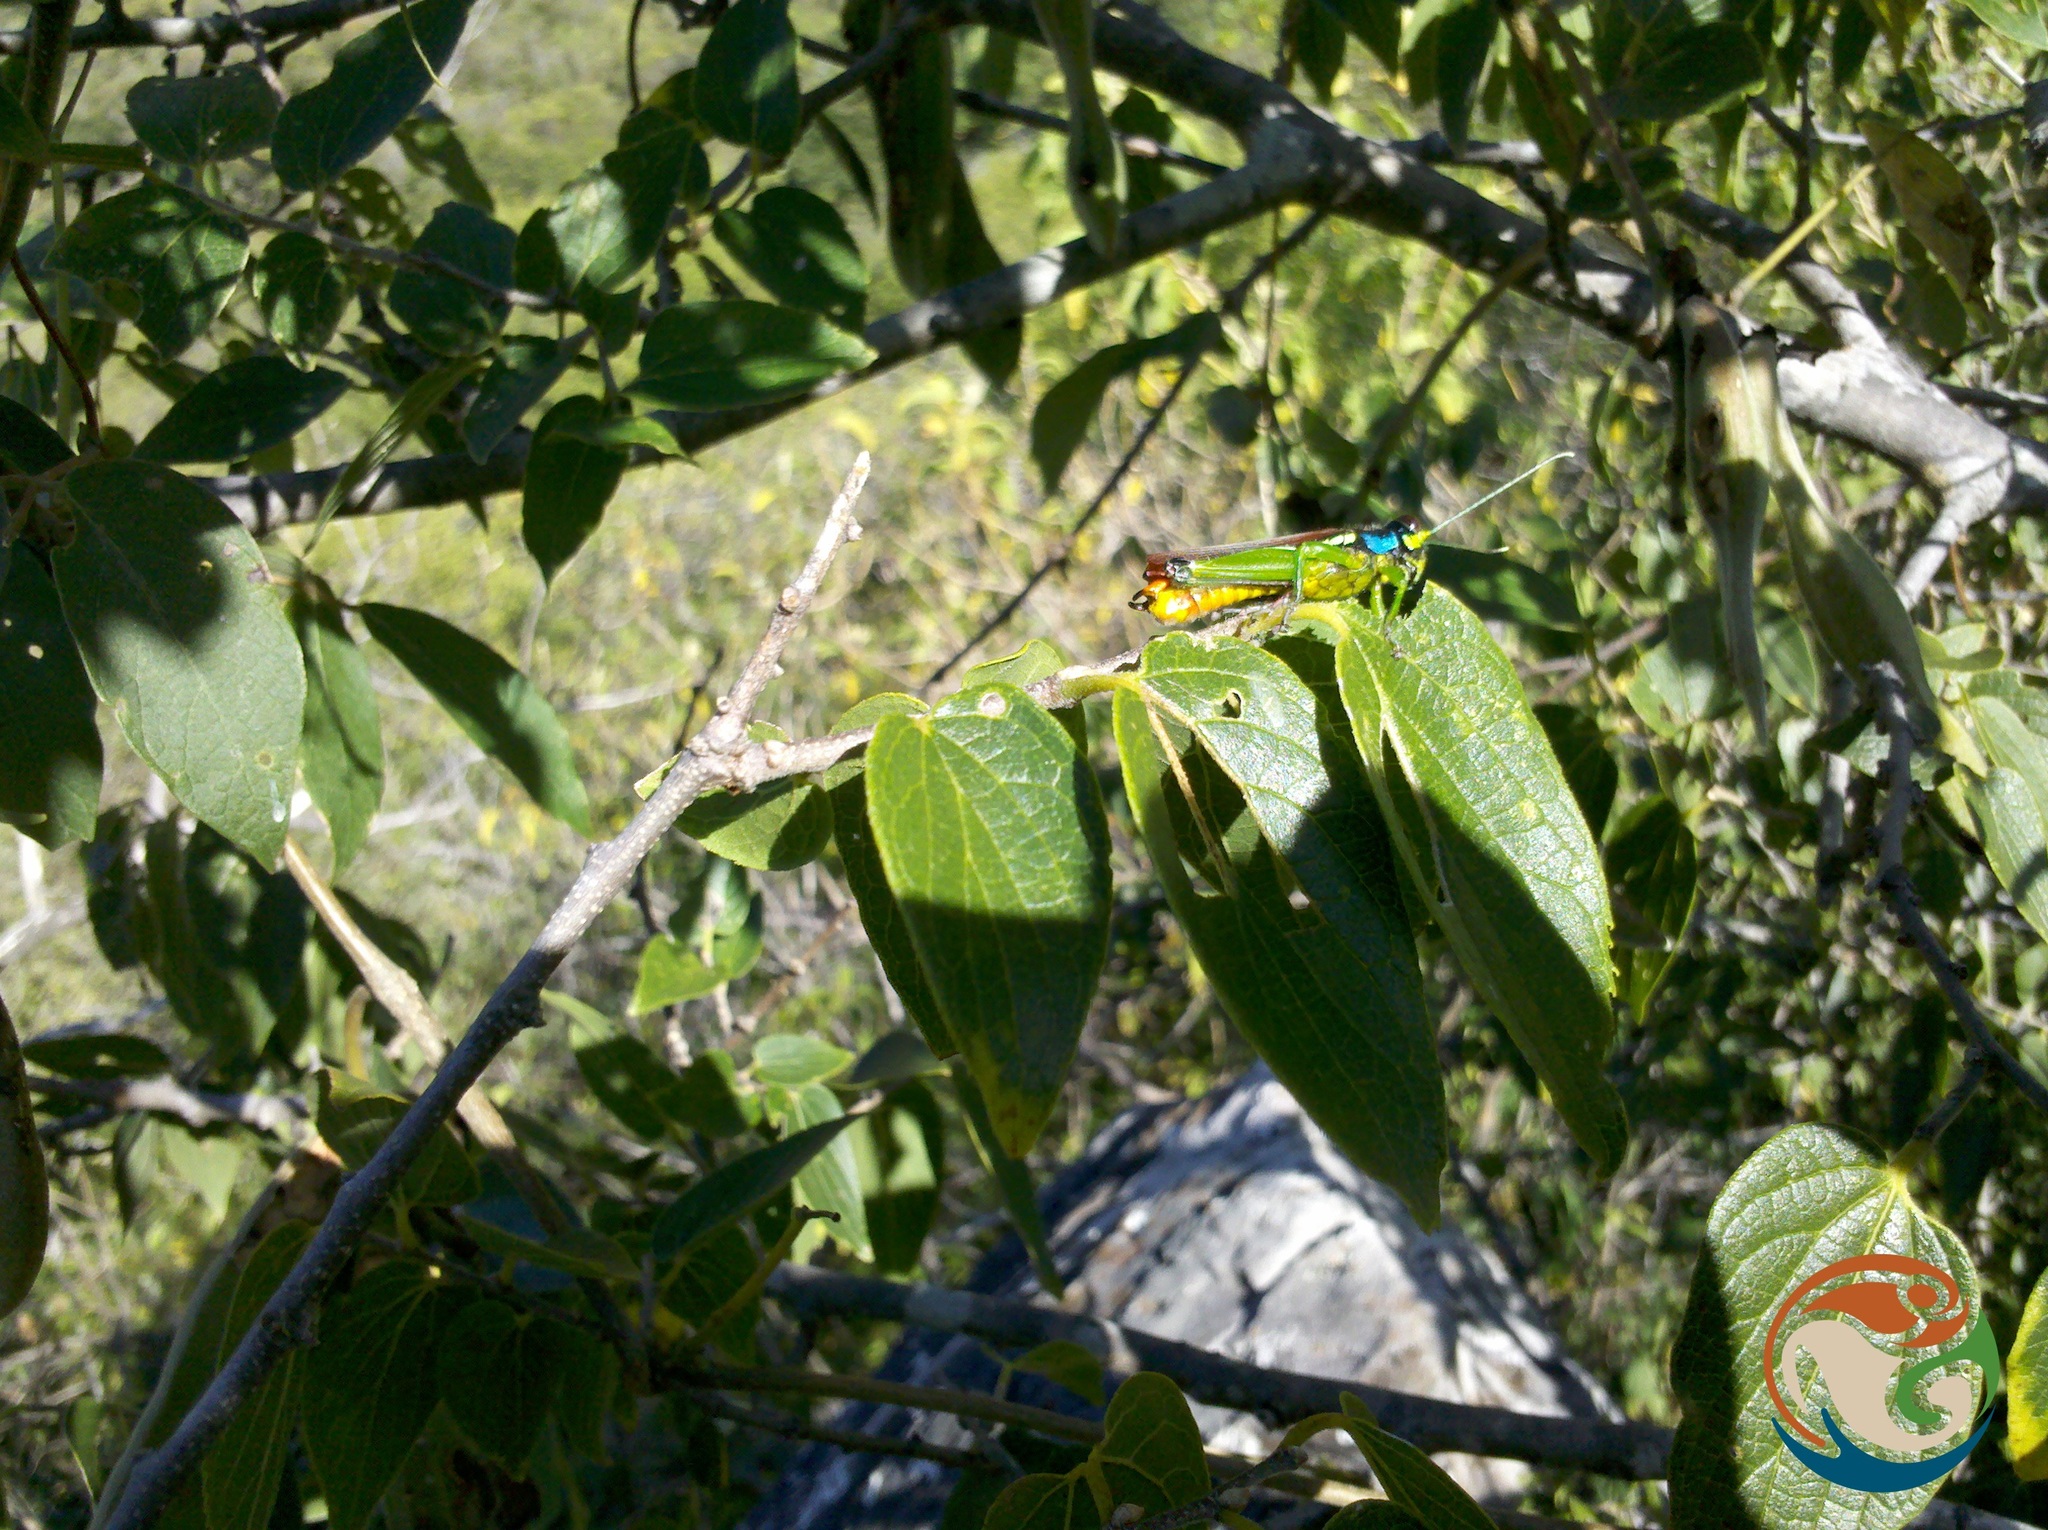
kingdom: Plantae
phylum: Tracheophyta
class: Magnoliopsida
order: Rosales
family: Cannabaceae
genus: Celtis
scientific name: Celtis reticulata
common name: Netleaf hackberry
